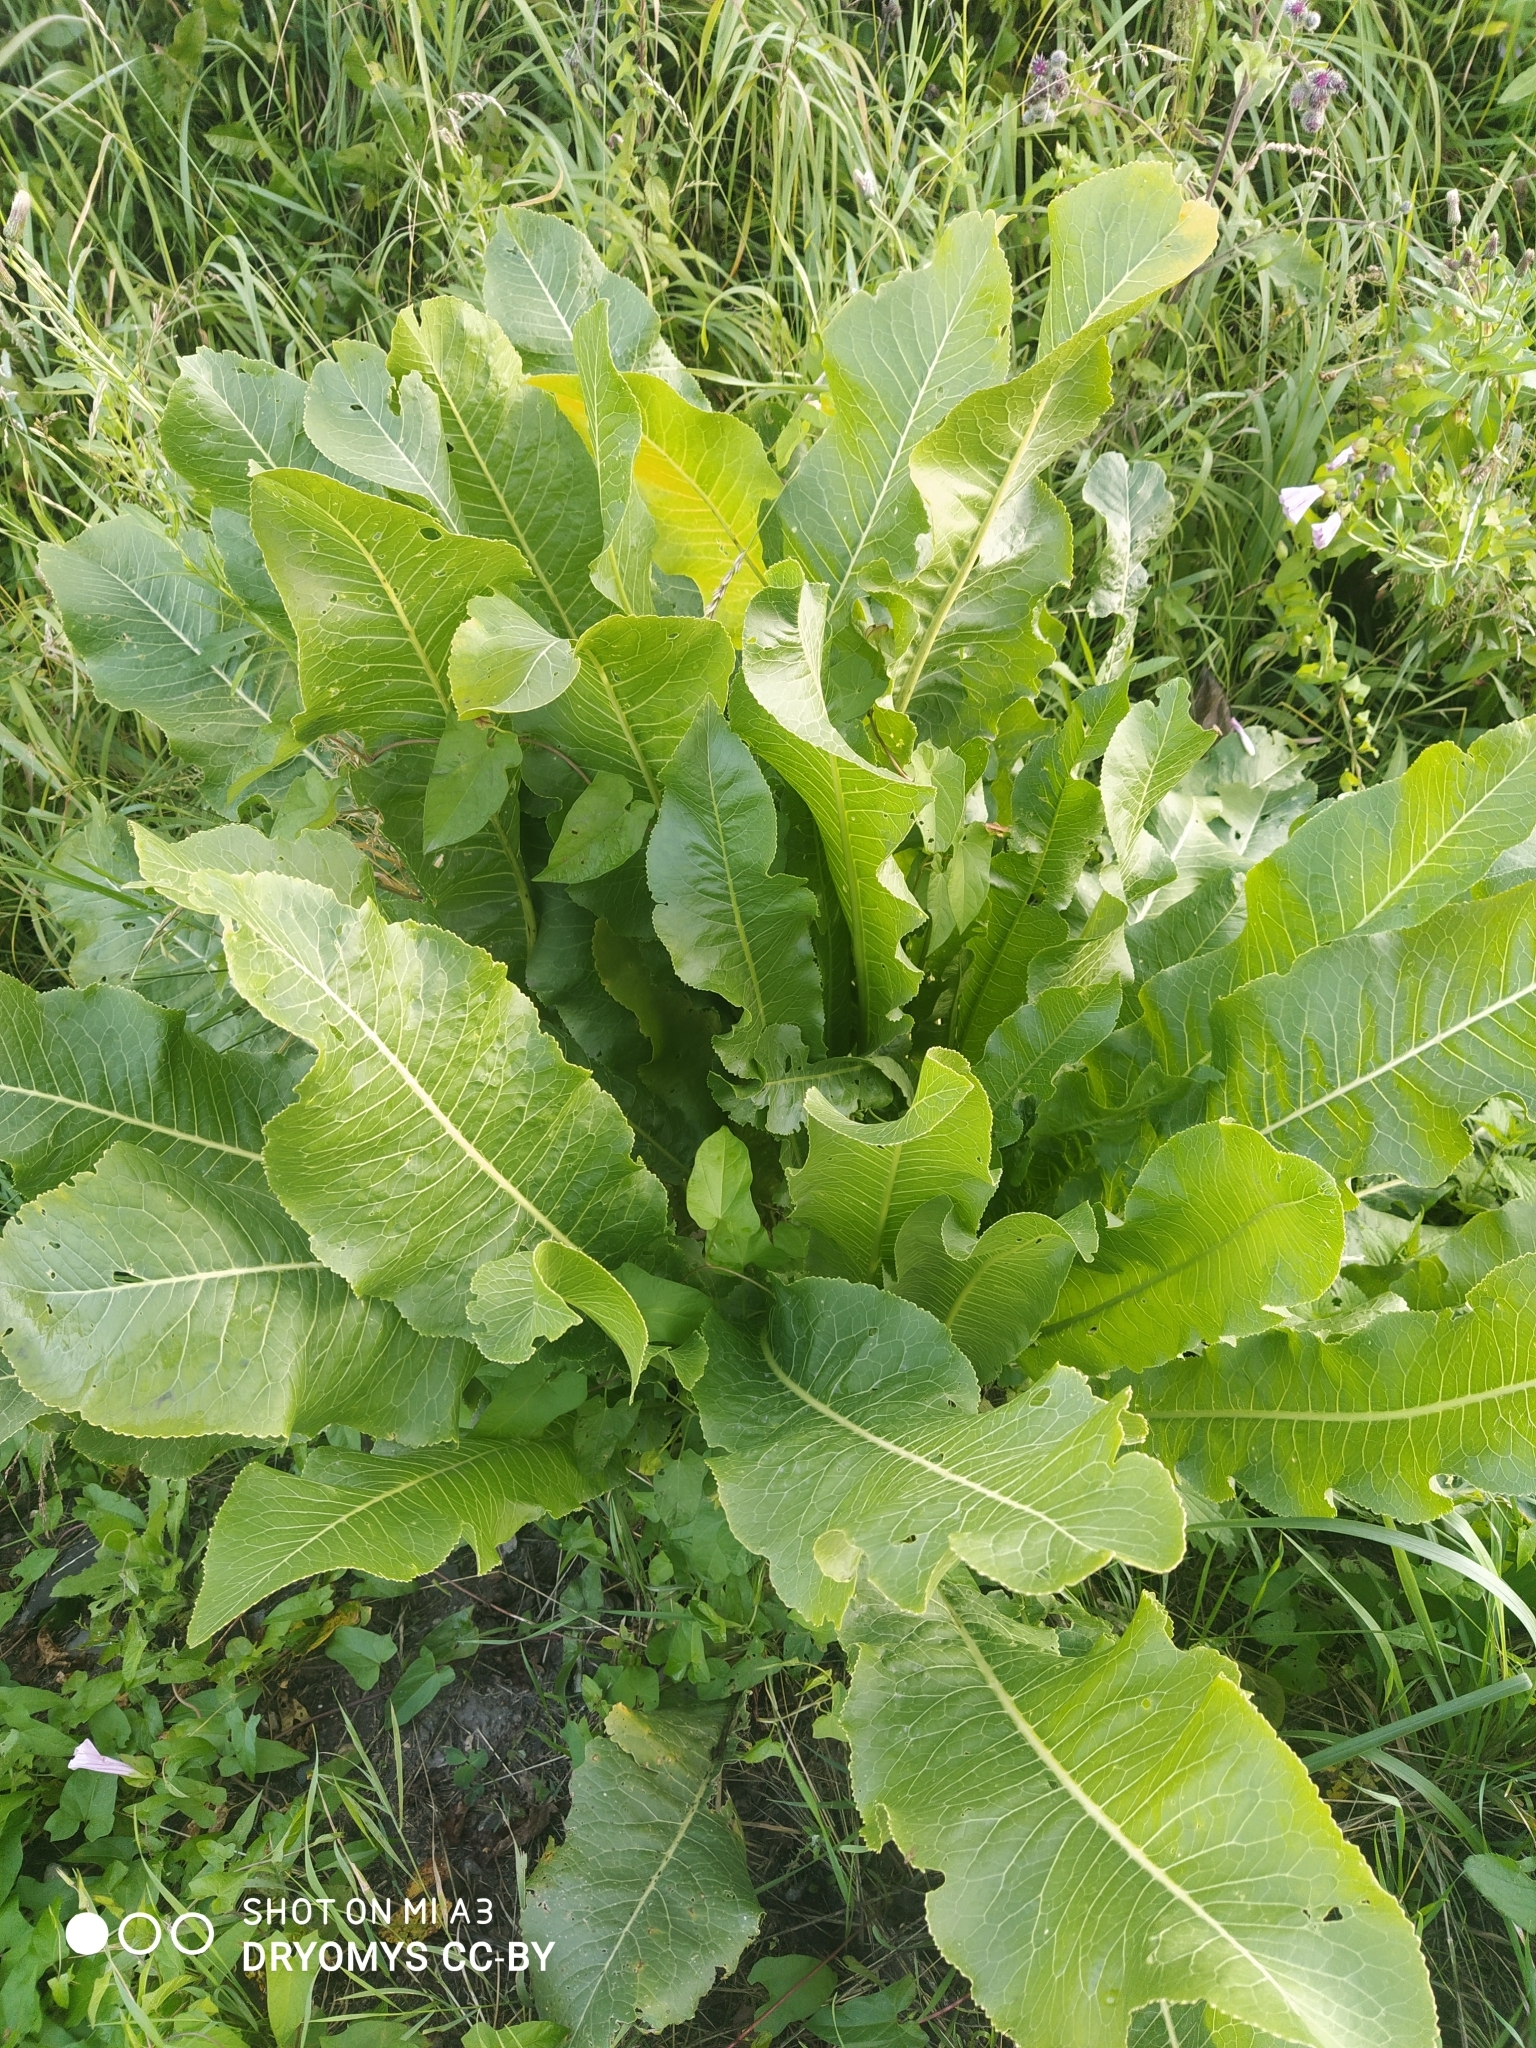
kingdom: Plantae
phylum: Tracheophyta
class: Magnoliopsida
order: Brassicales
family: Brassicaceae
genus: Armoracia
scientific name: Armoracia rusticana
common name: Horseradish
